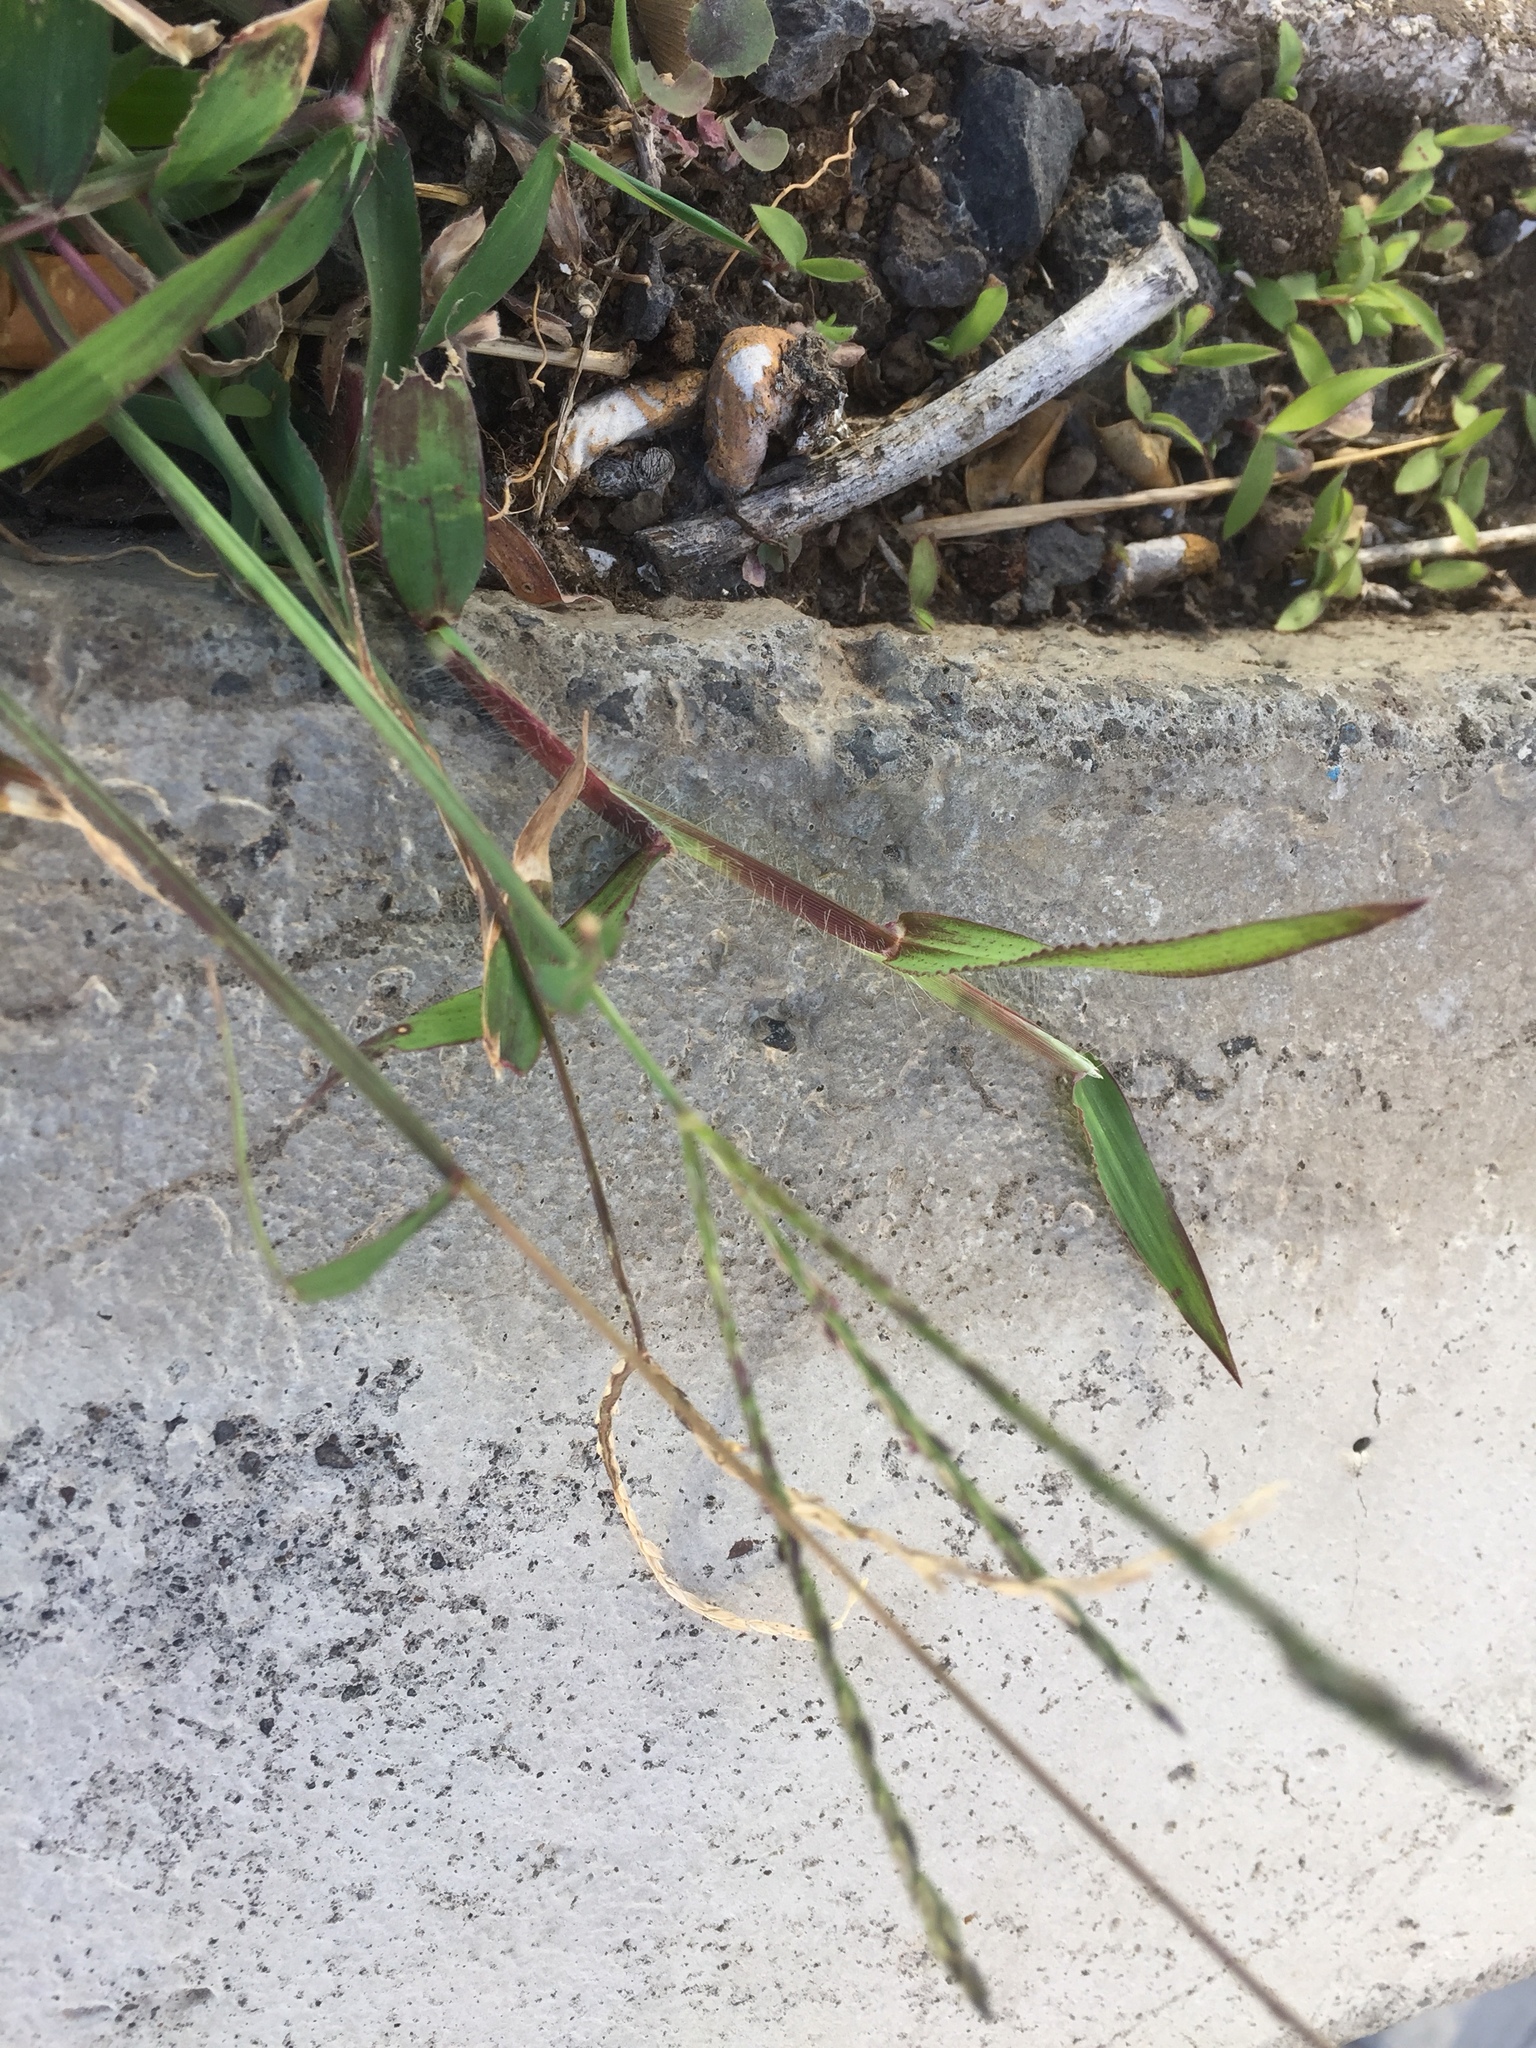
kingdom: Plantae
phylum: Tracheophyta
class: Liliopsida
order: Poales
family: Poaceae
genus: Digitaria
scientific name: Digitaria sanguinalis
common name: Hairy crabgrass
